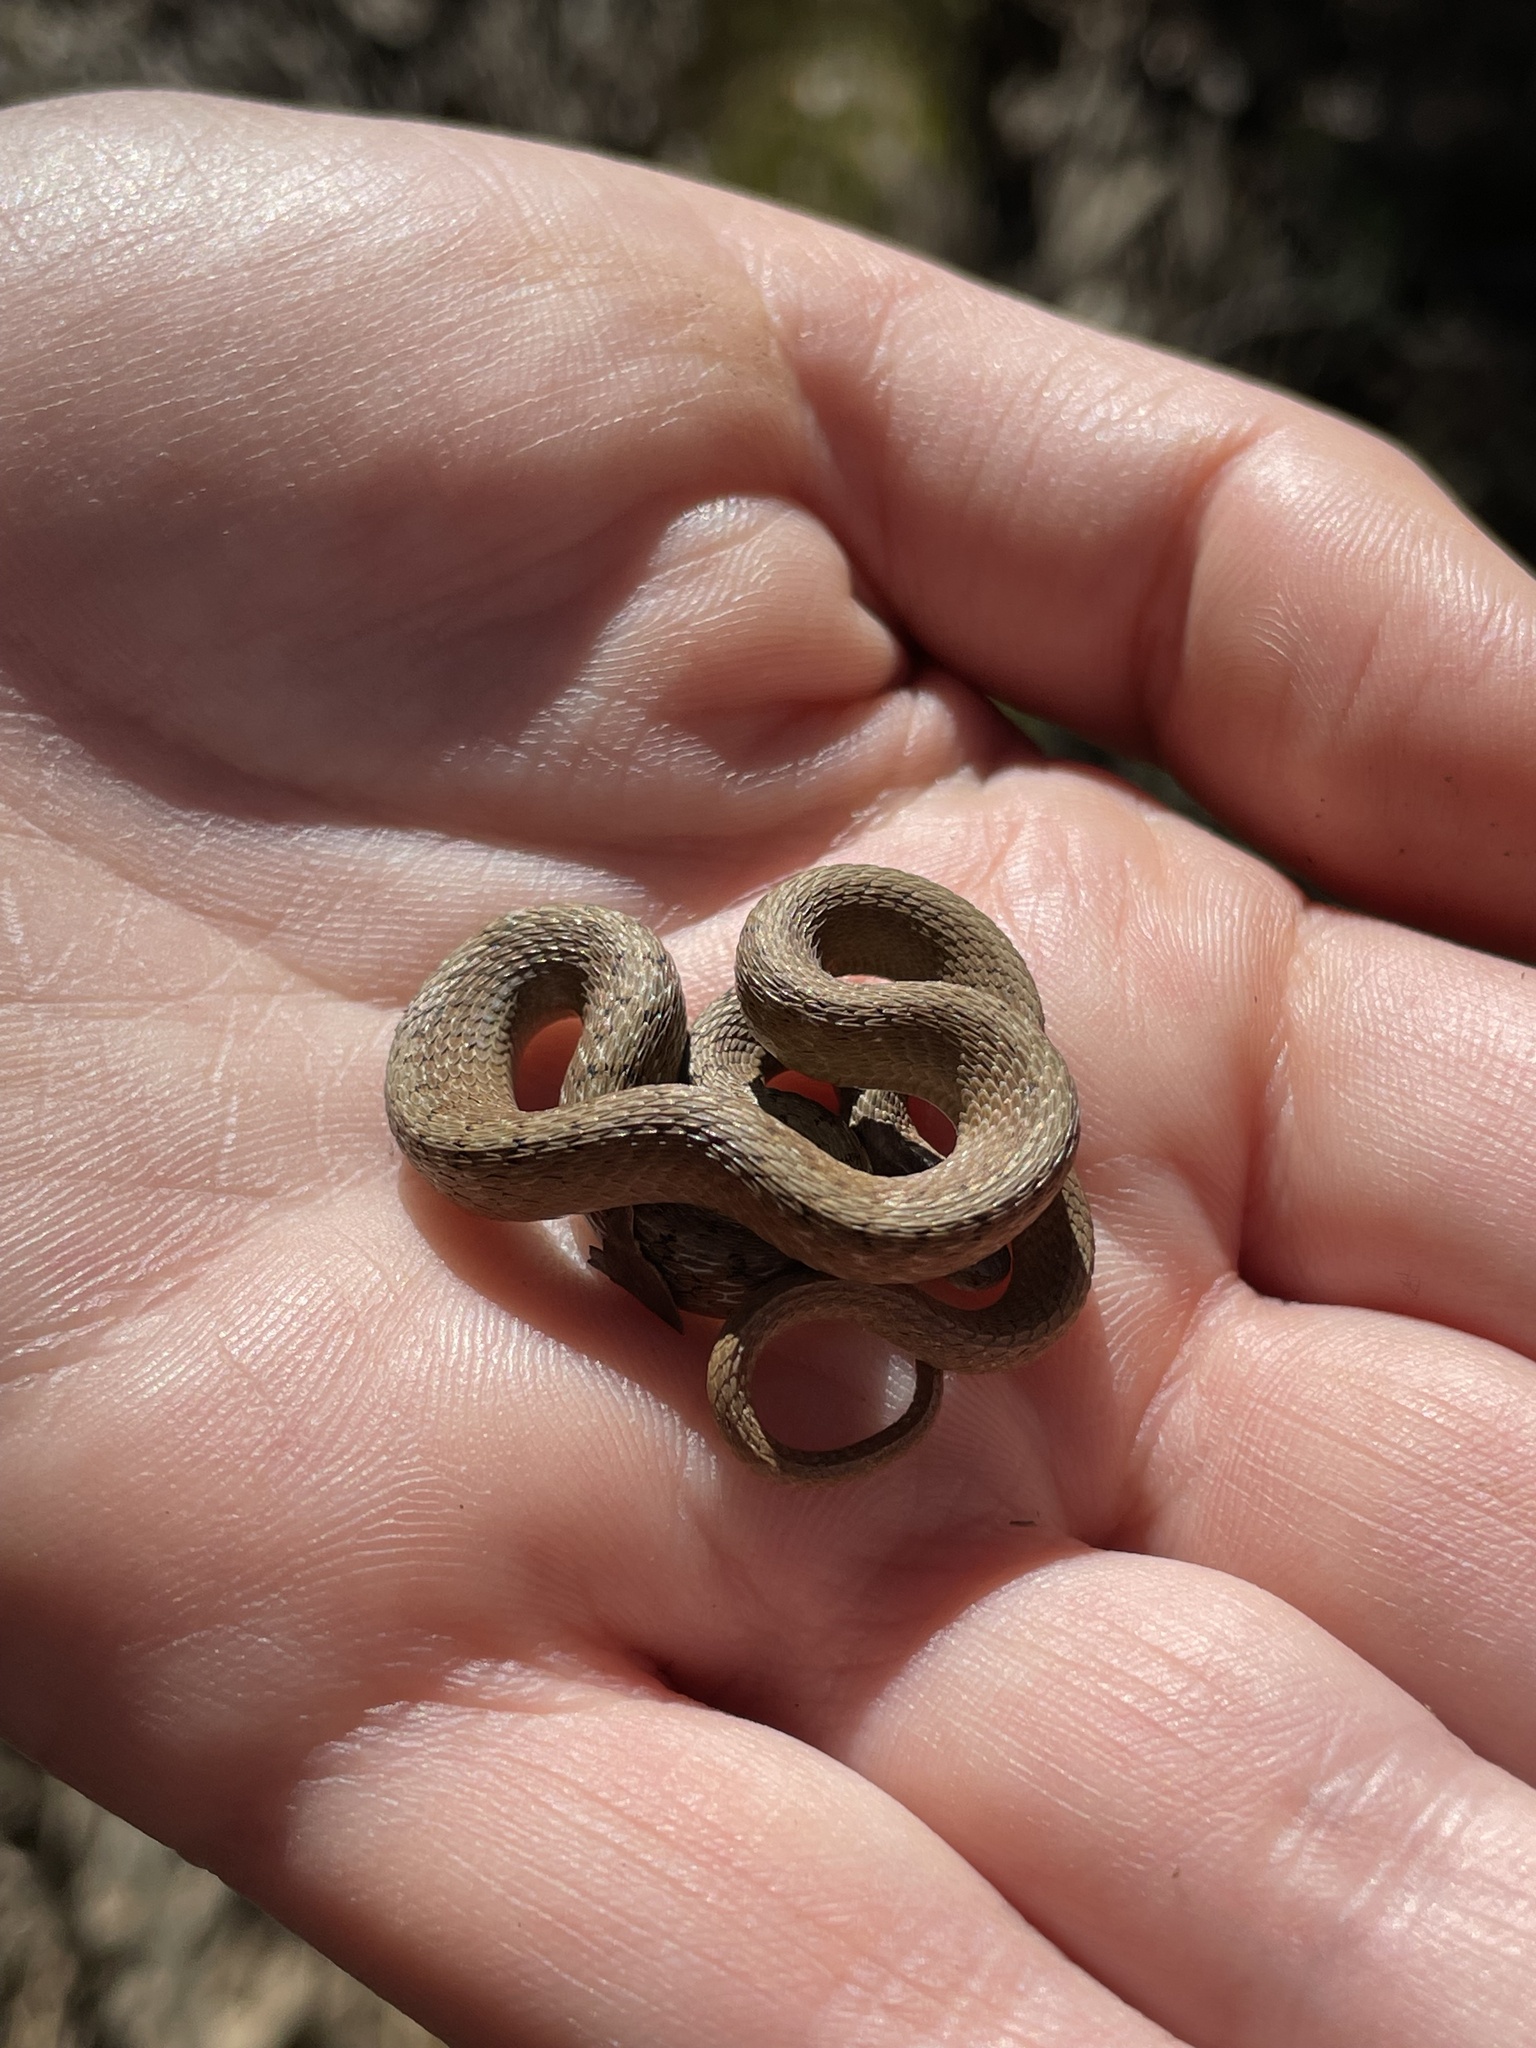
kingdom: Animalia
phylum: Chordata
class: Squamata
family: Colubridae
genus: Storeria
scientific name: Storeria dekayi
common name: (dekay’s) brown snake
